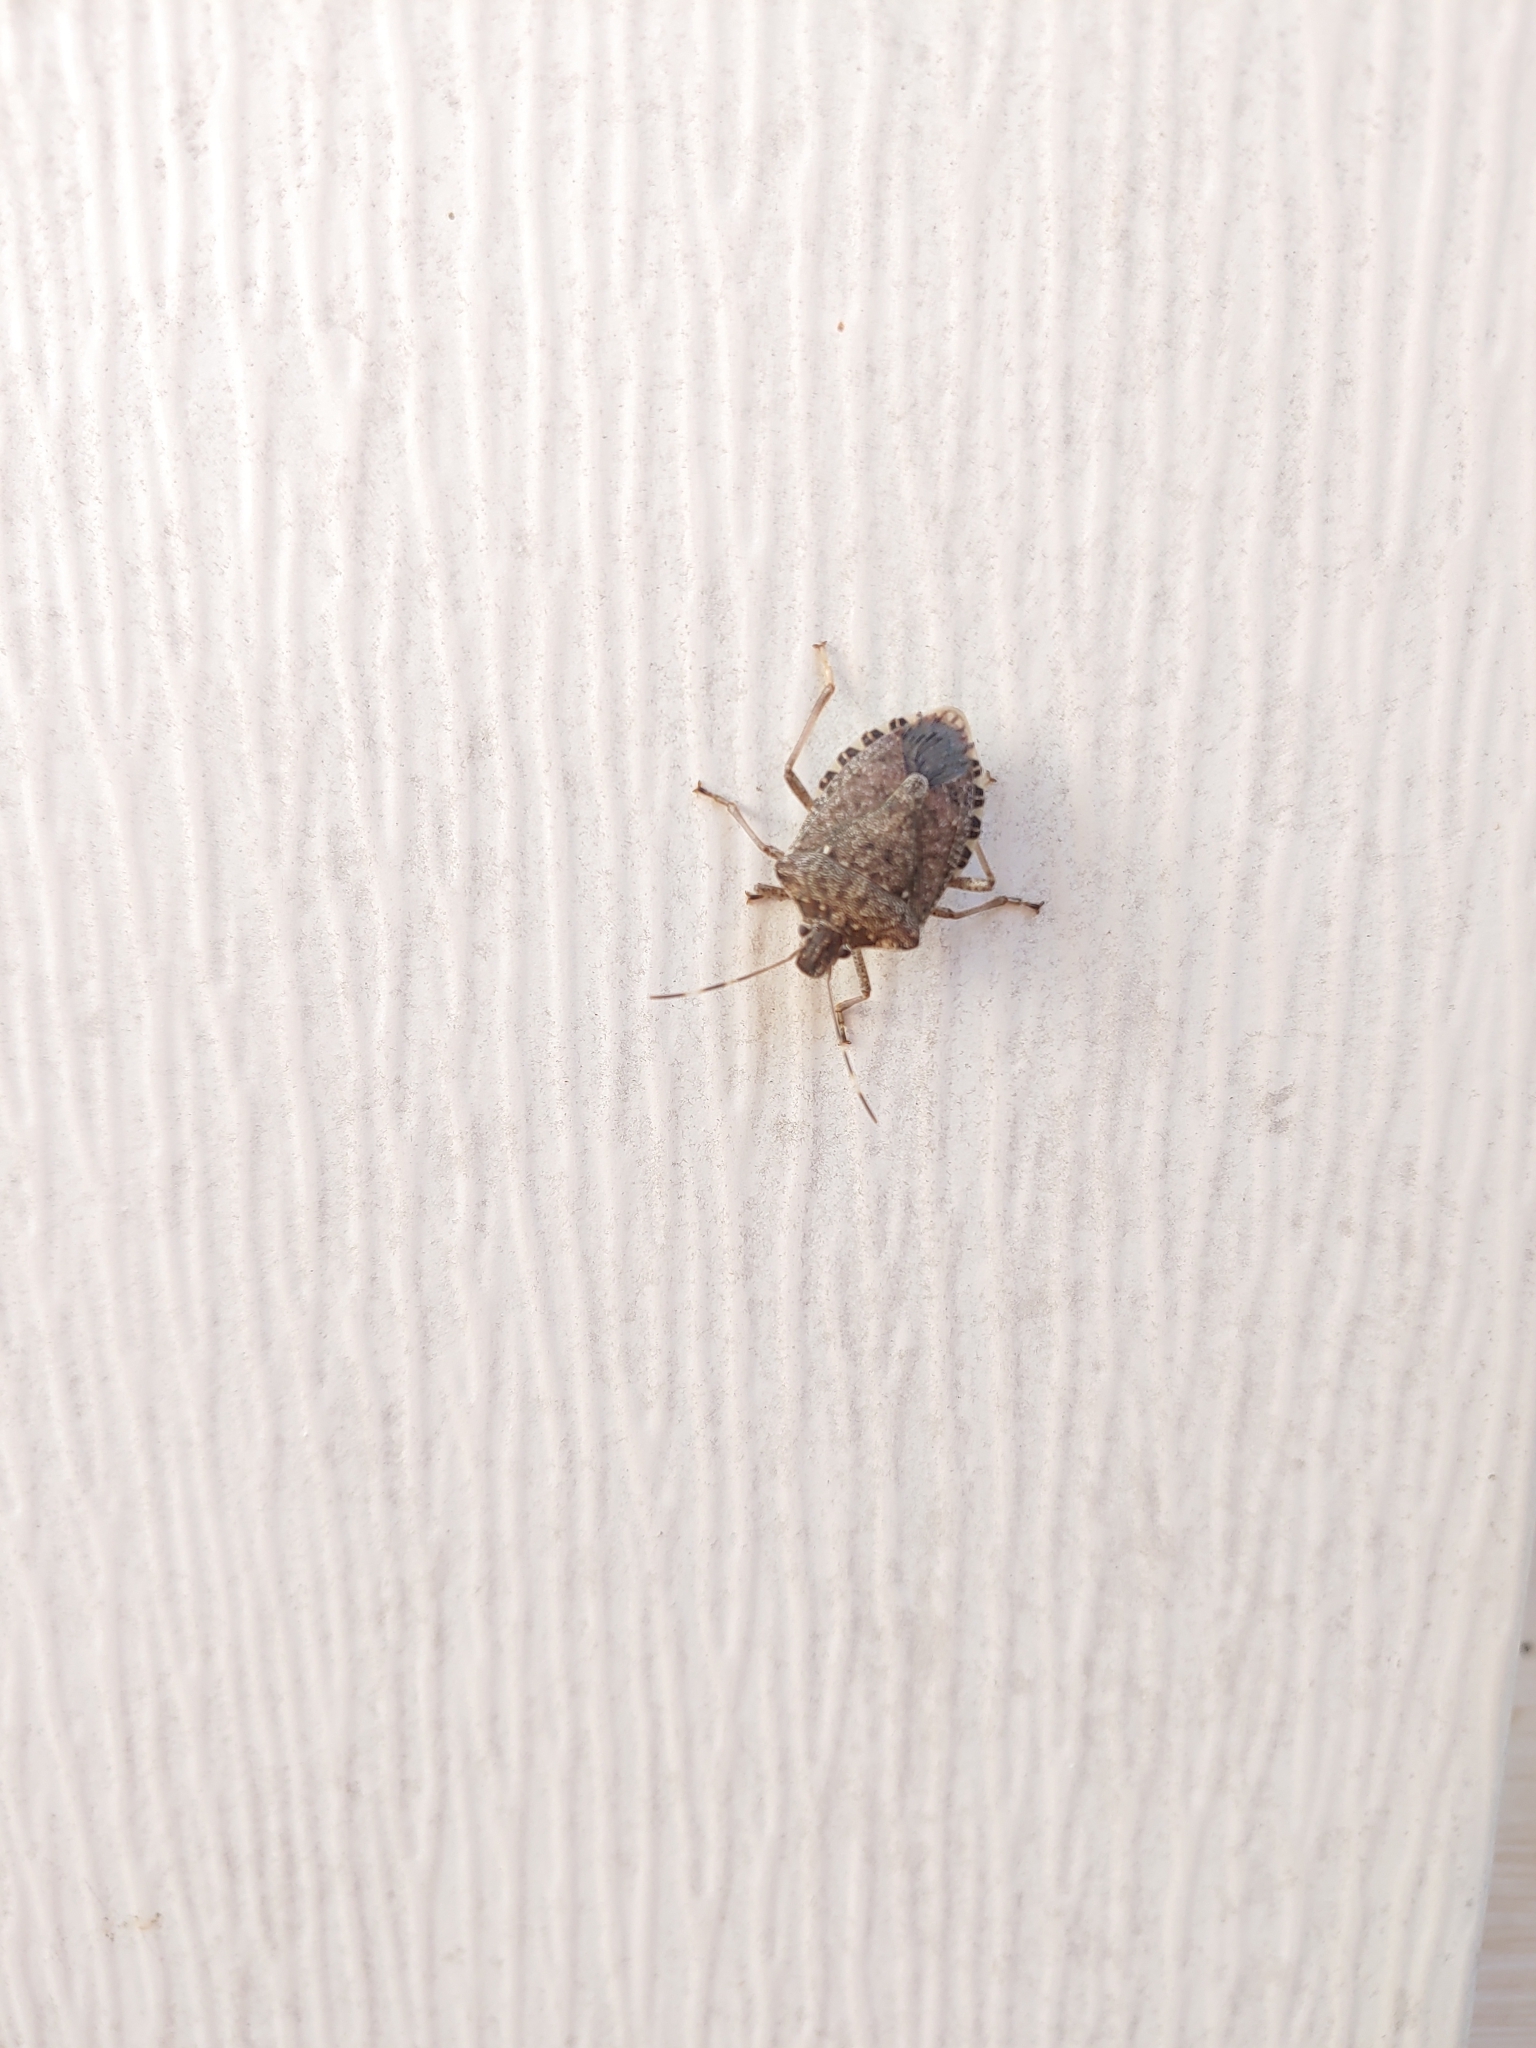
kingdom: Animalia
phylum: Arthropoda
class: Insecta
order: Hemiptera
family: Pentatomidae
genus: Halyomorpha
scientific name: Halyomorpha halys
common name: Brown marmorated stink bug
